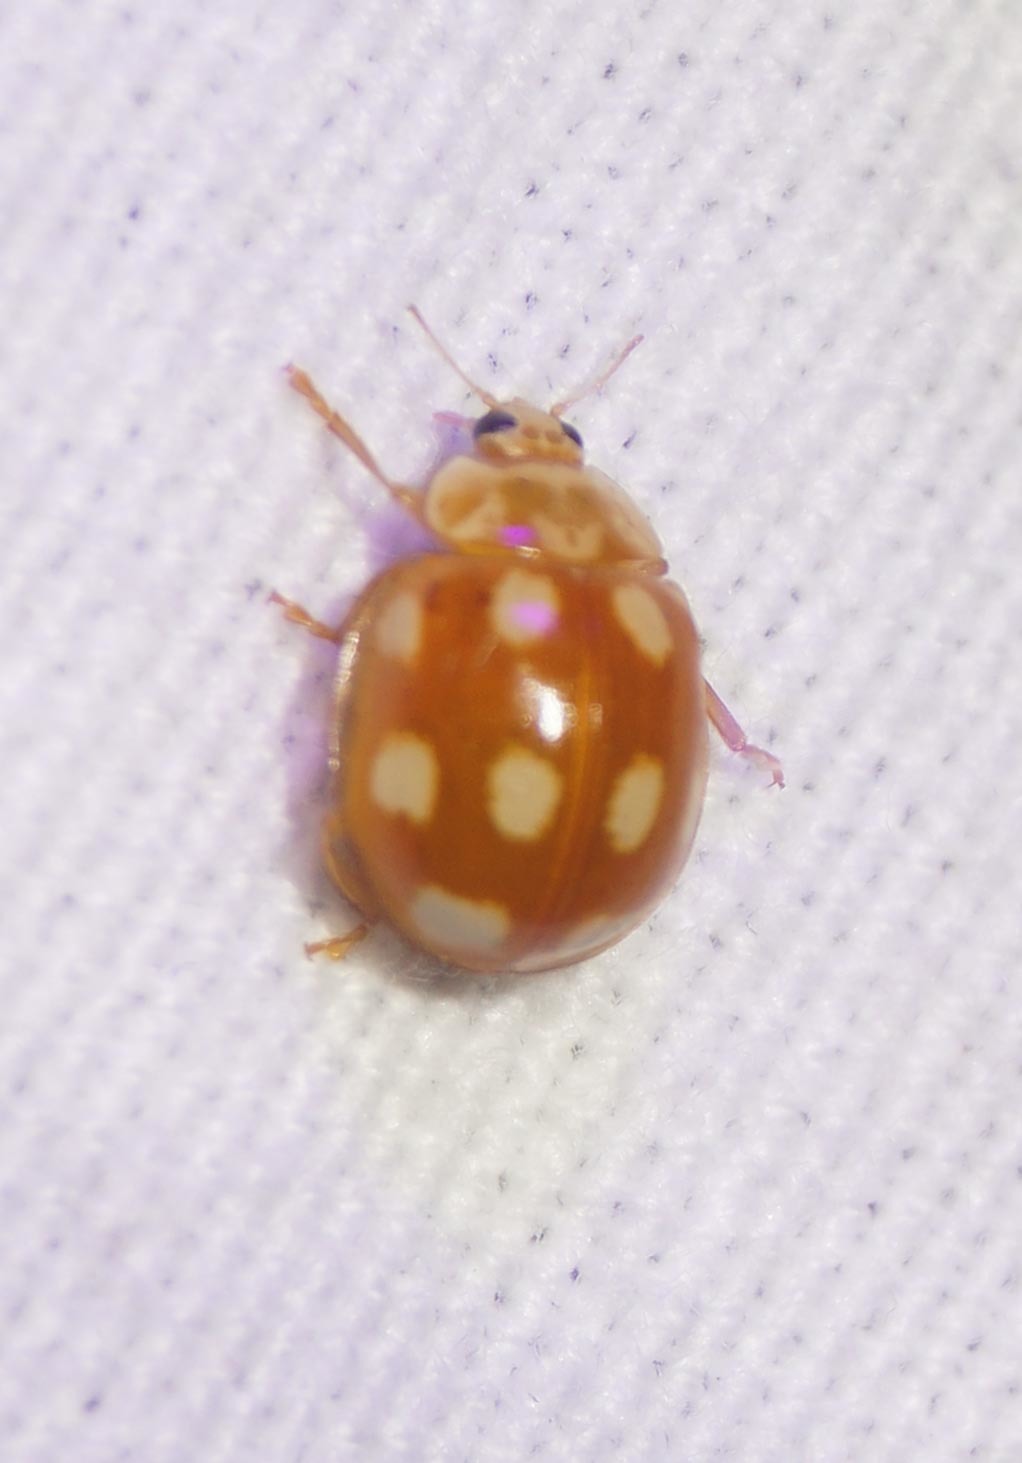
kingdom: Animalia
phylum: Arthropoda
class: Insecta
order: Coleoptera
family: Coccinellidae
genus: Calvia
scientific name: Calvia decemguttata
